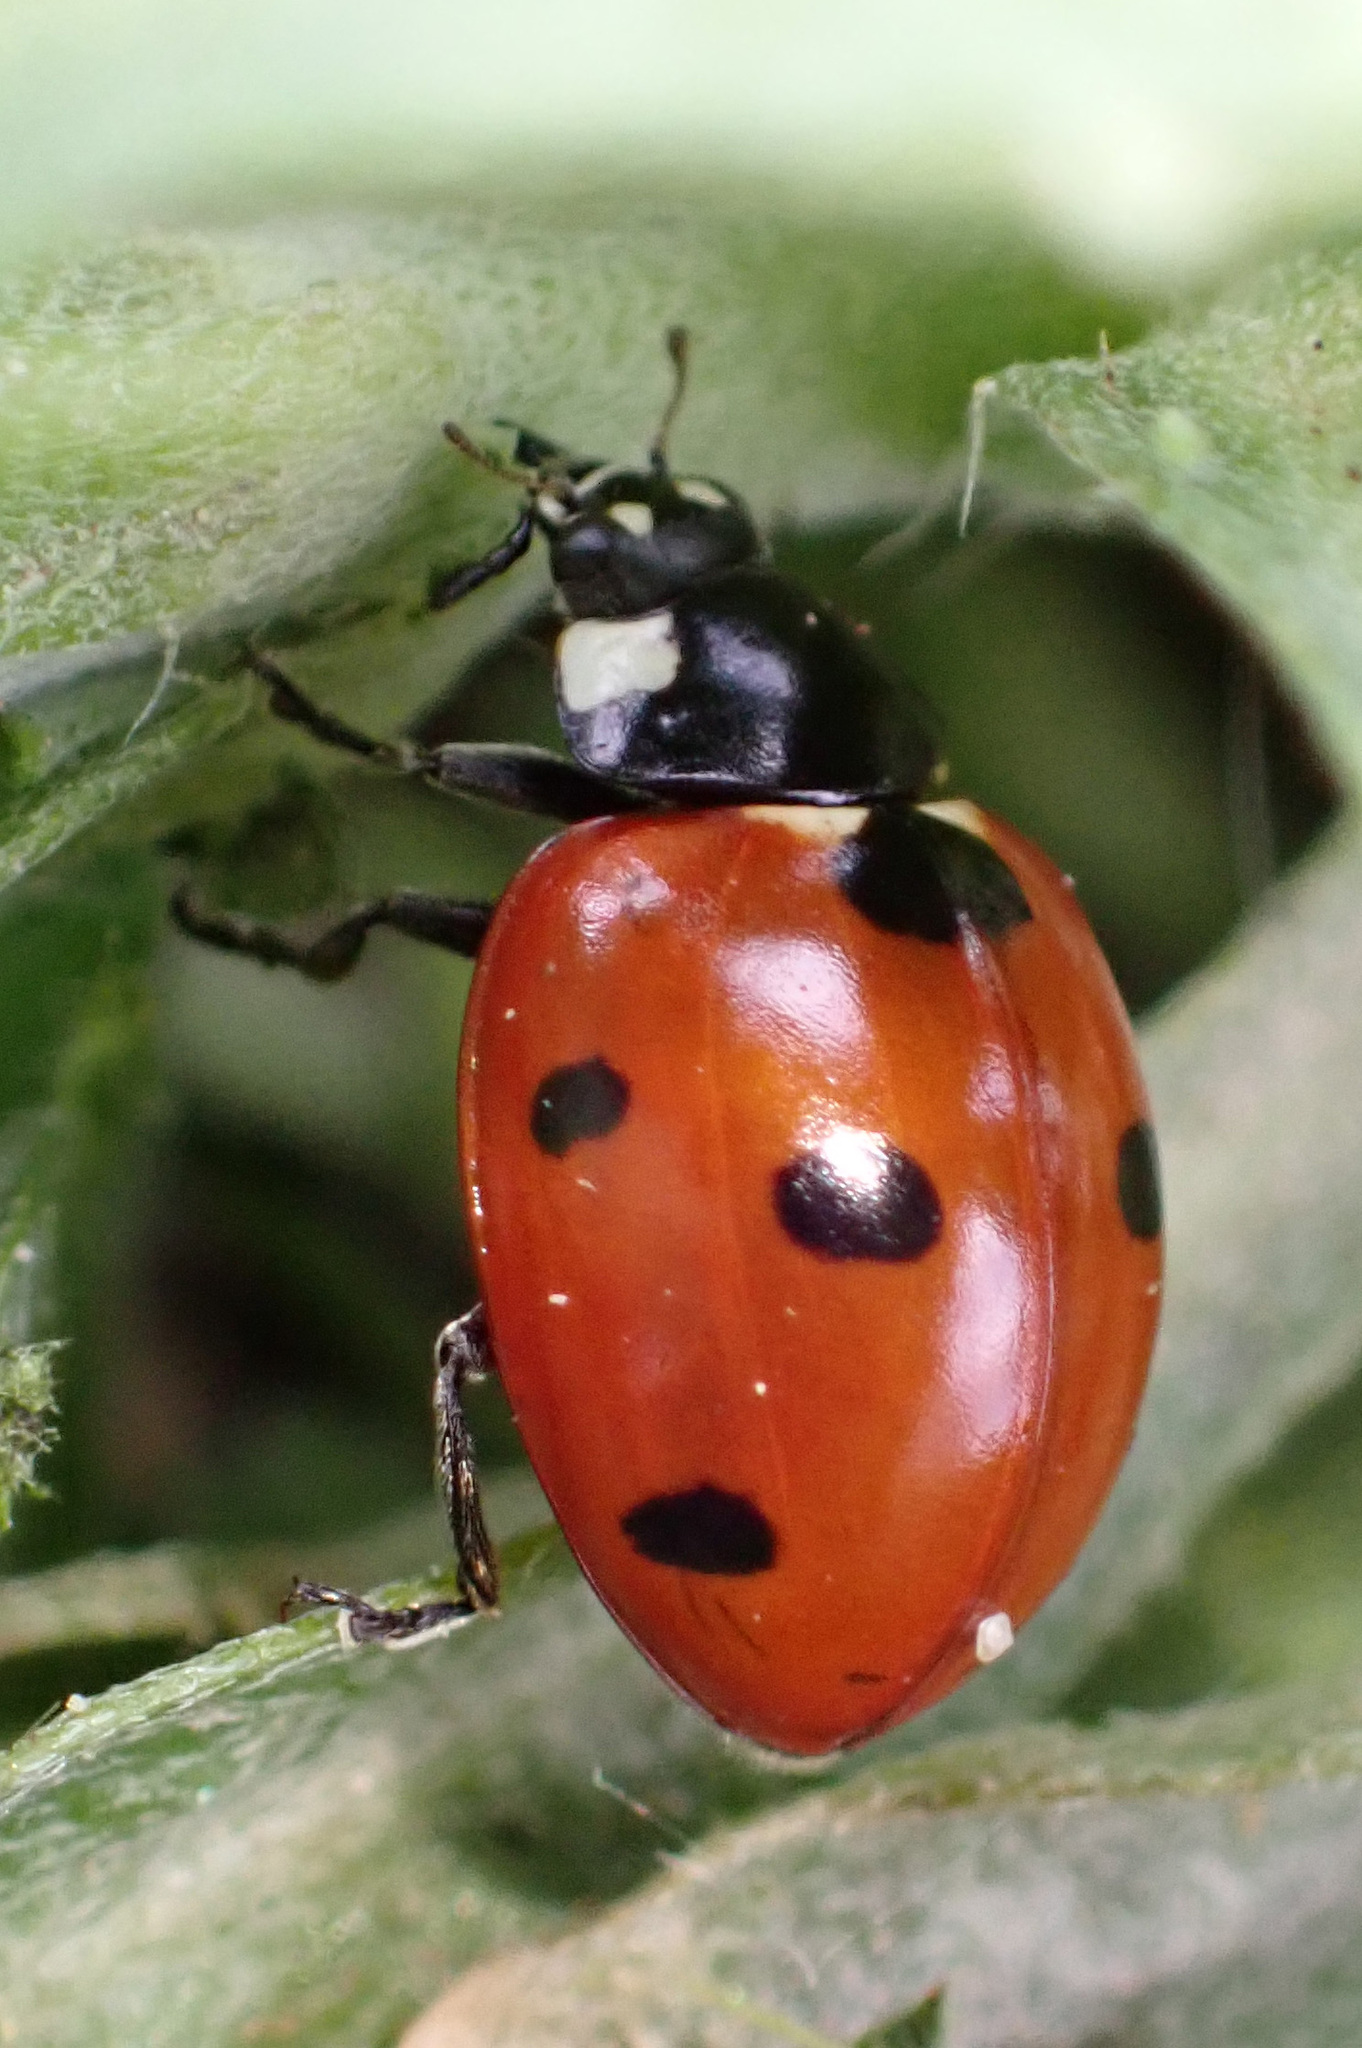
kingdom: Animalia
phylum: Arthropoda
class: Insecta
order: Coleoptera
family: Coccinellidae
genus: Coccinella
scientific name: Coccinella septempunctata
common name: Sevenspotted lady beetle
